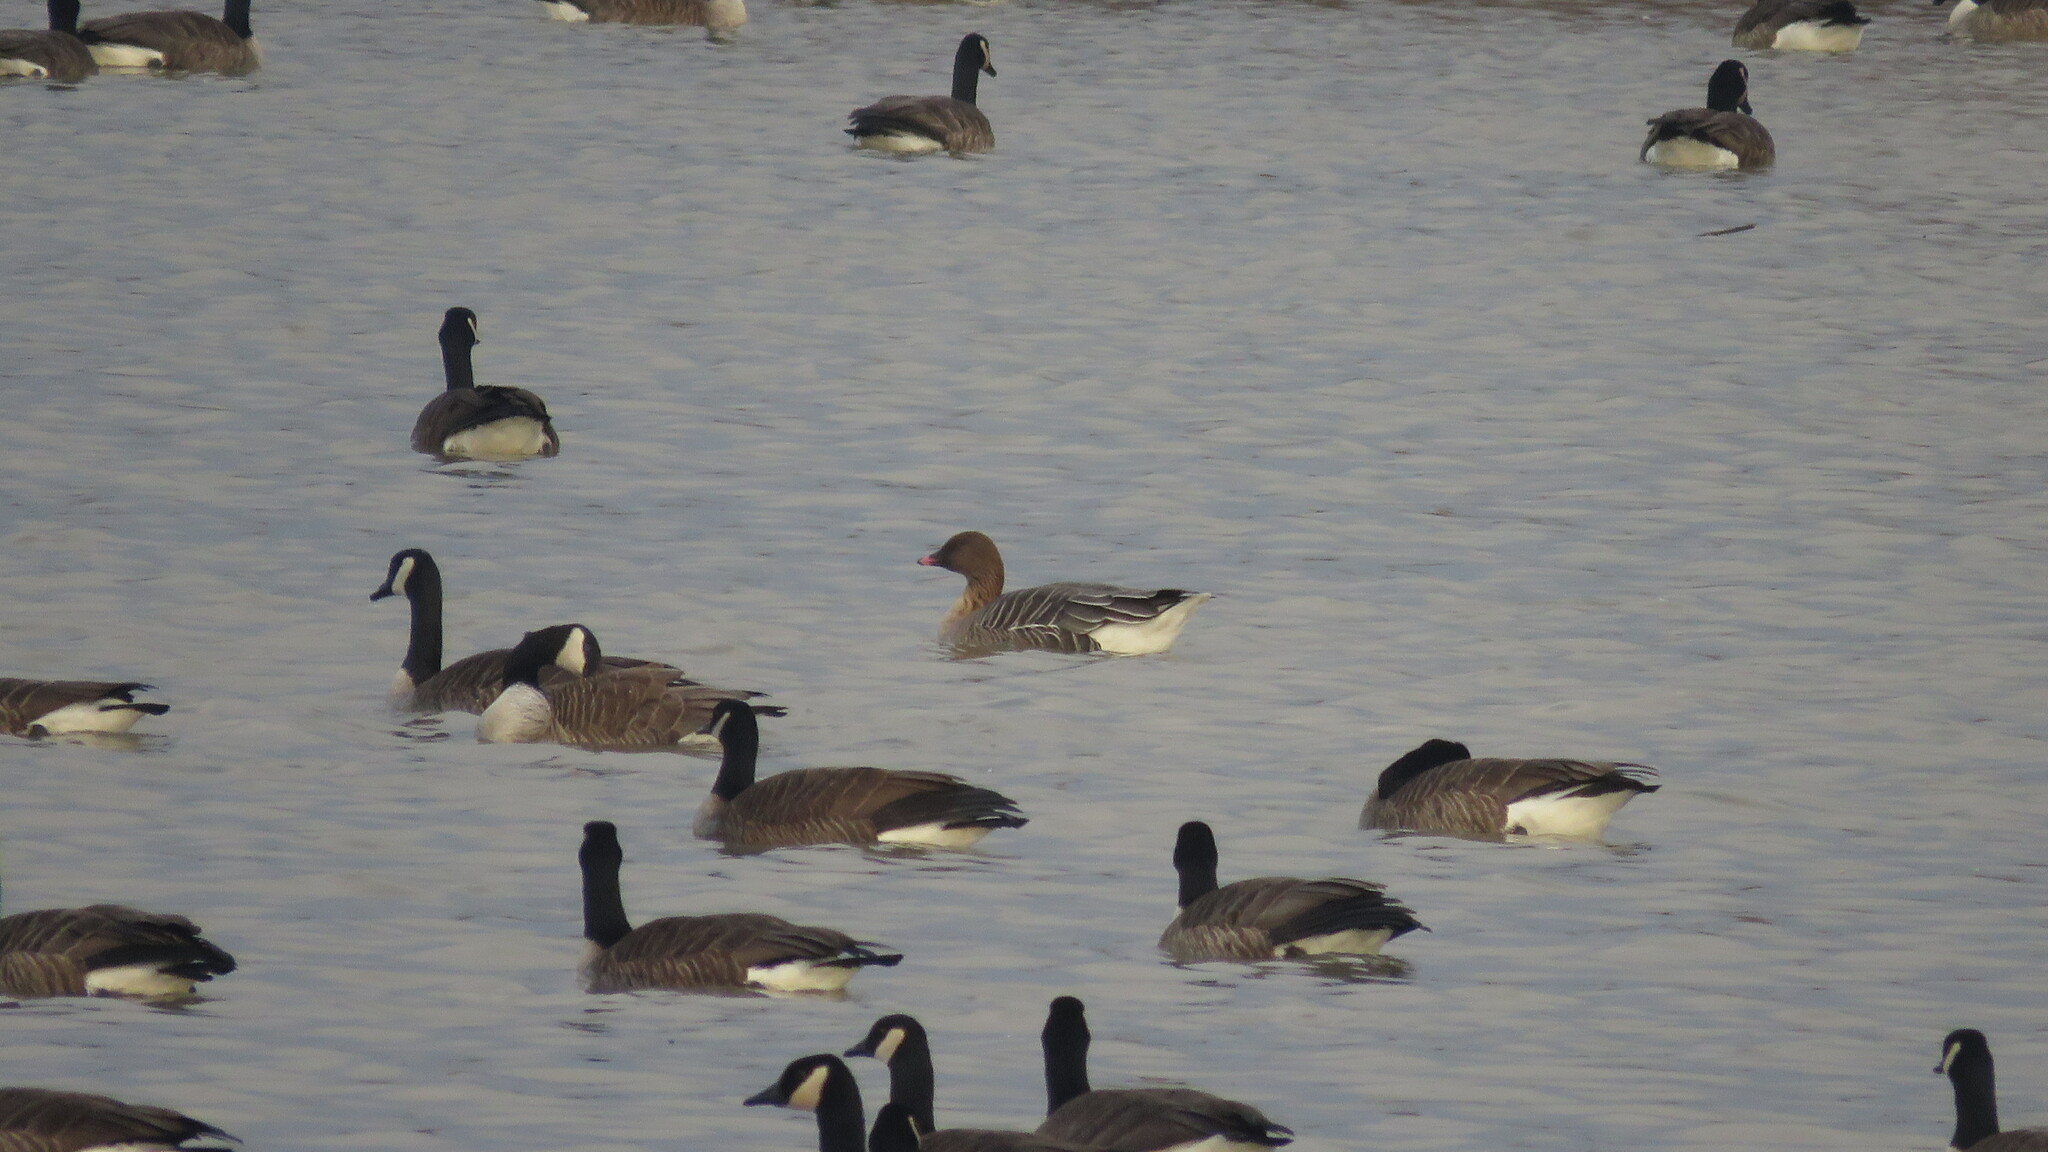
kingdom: Animalia
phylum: Chordata
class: Aves
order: Anseriformes
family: Anatidae
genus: Anser
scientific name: Anser brachyrhynchus
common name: Pink-footed goose
